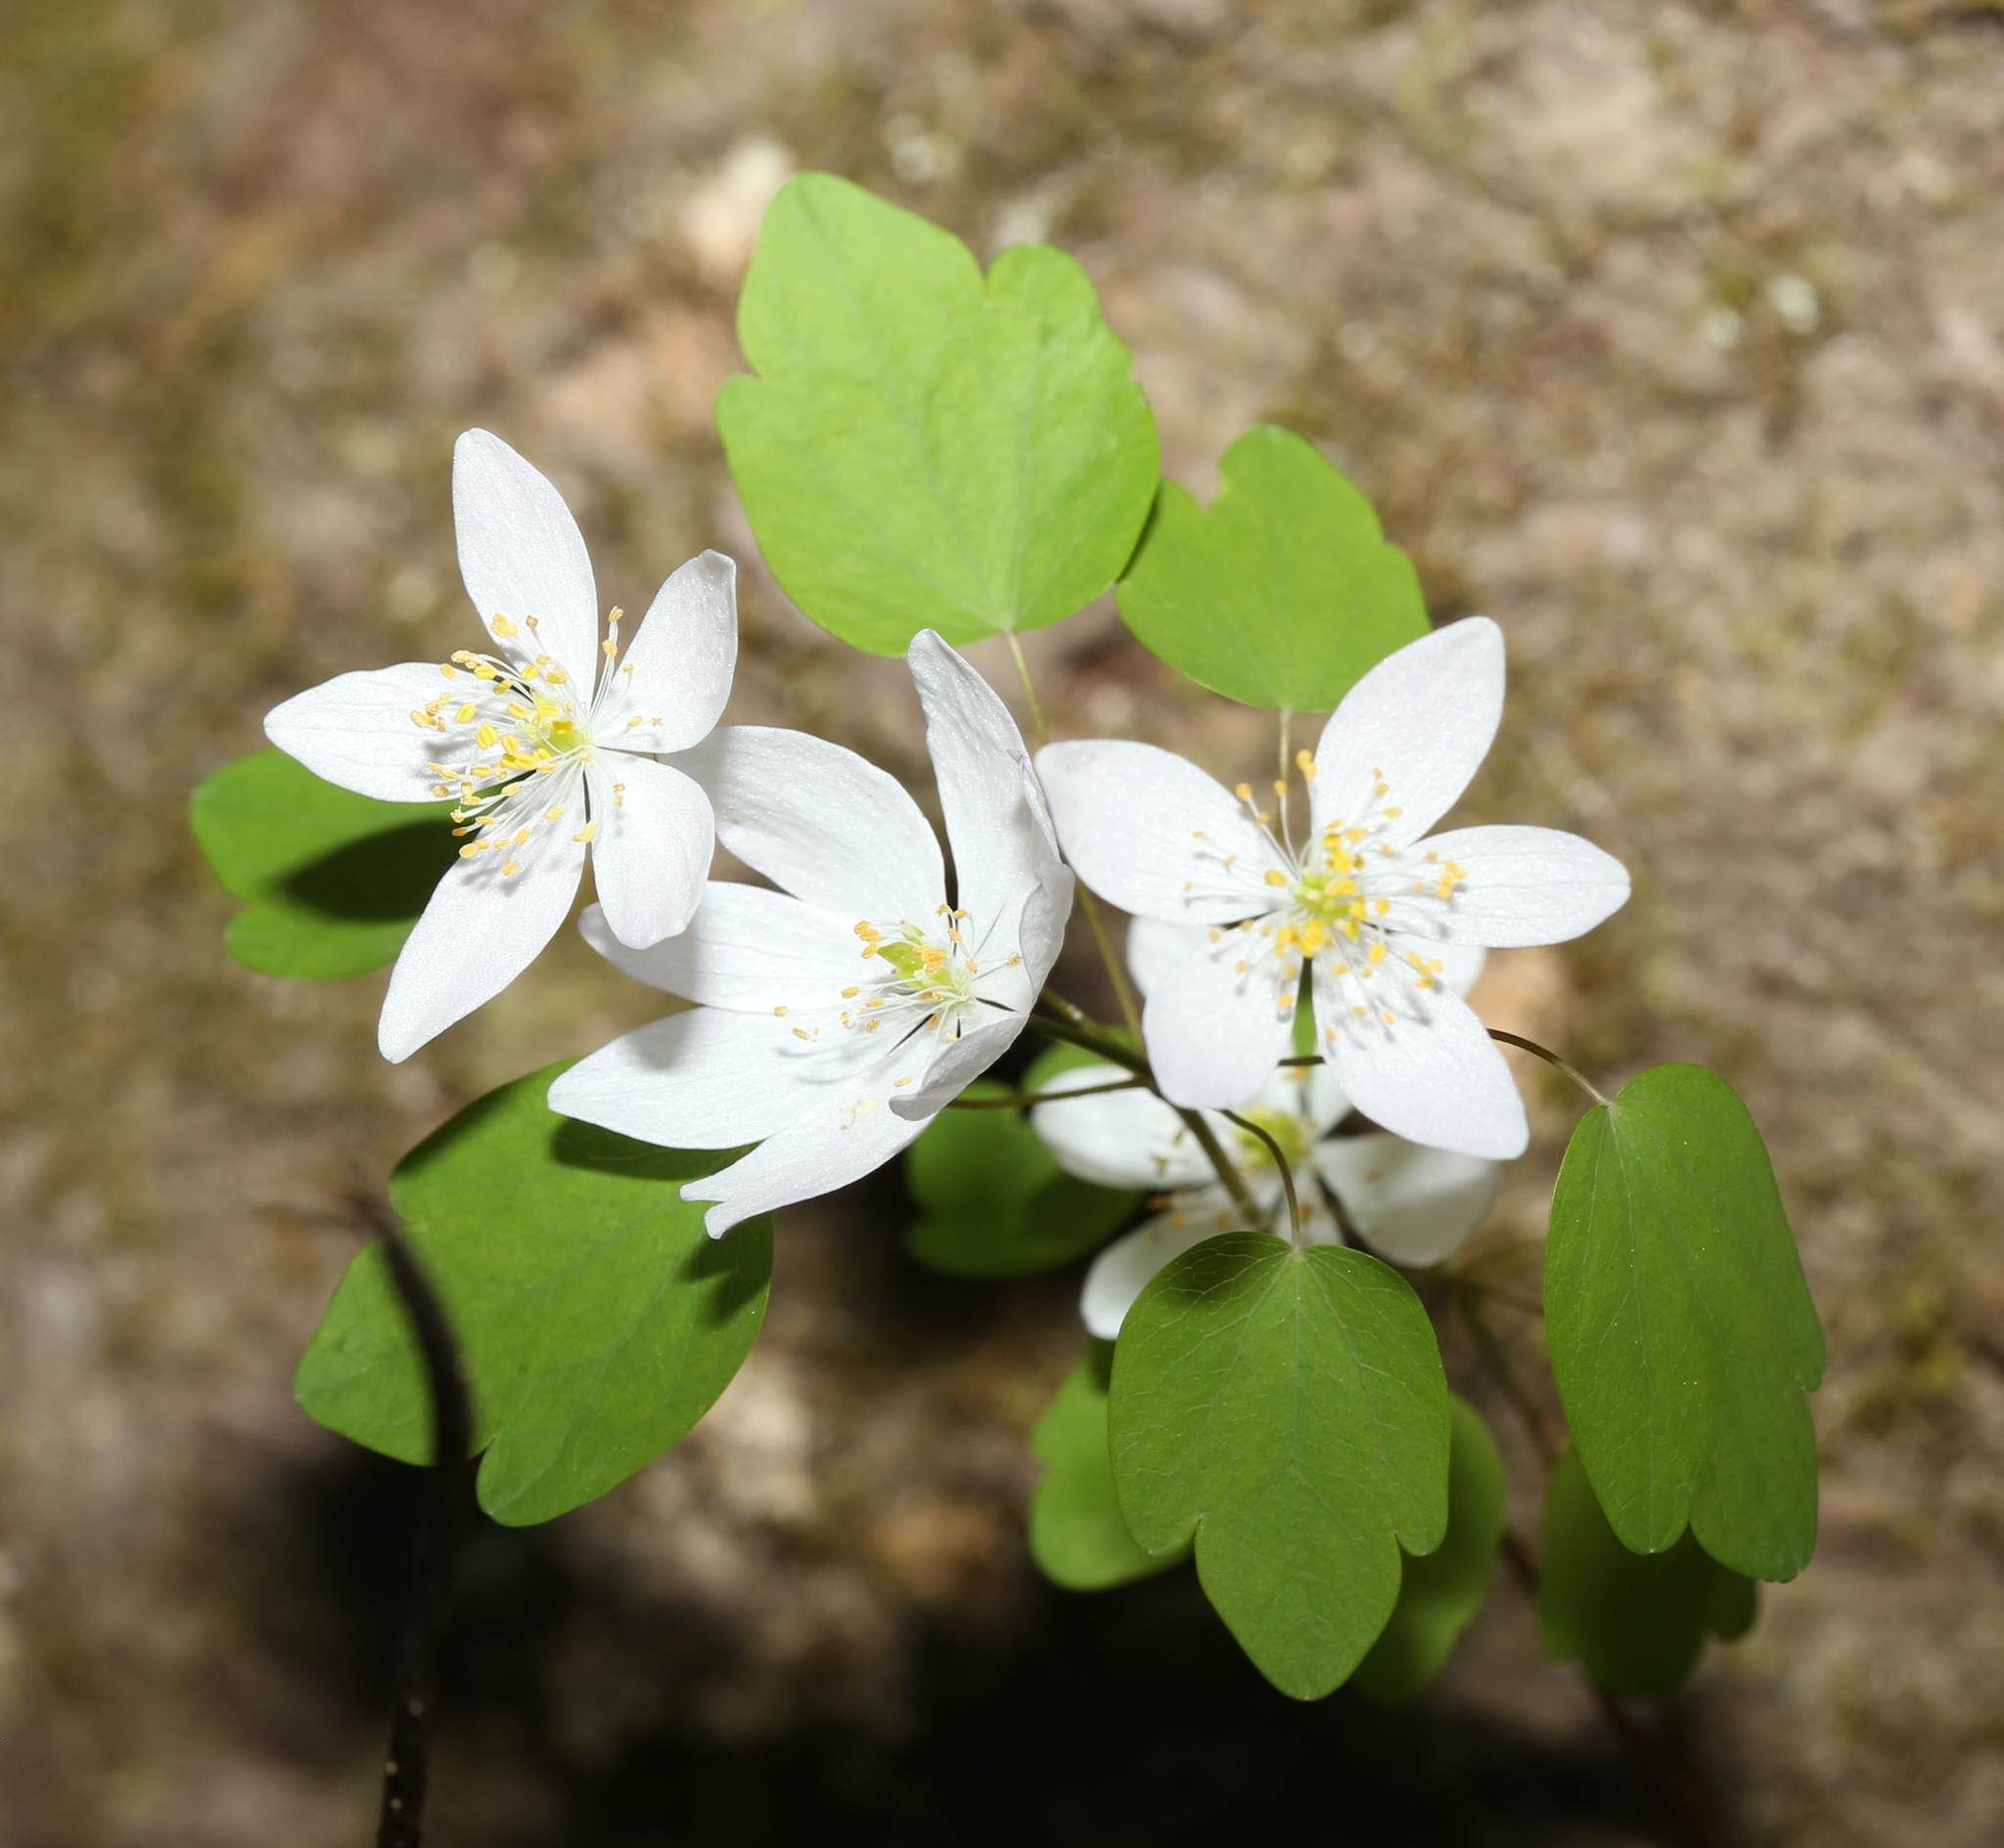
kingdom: Plantae
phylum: Tracheophyta
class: Magnoliopsida
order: Ranunculales
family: Ranunculaceae
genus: Thalictrum
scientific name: Thalictrum thalictroides
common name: Rue-anemone
